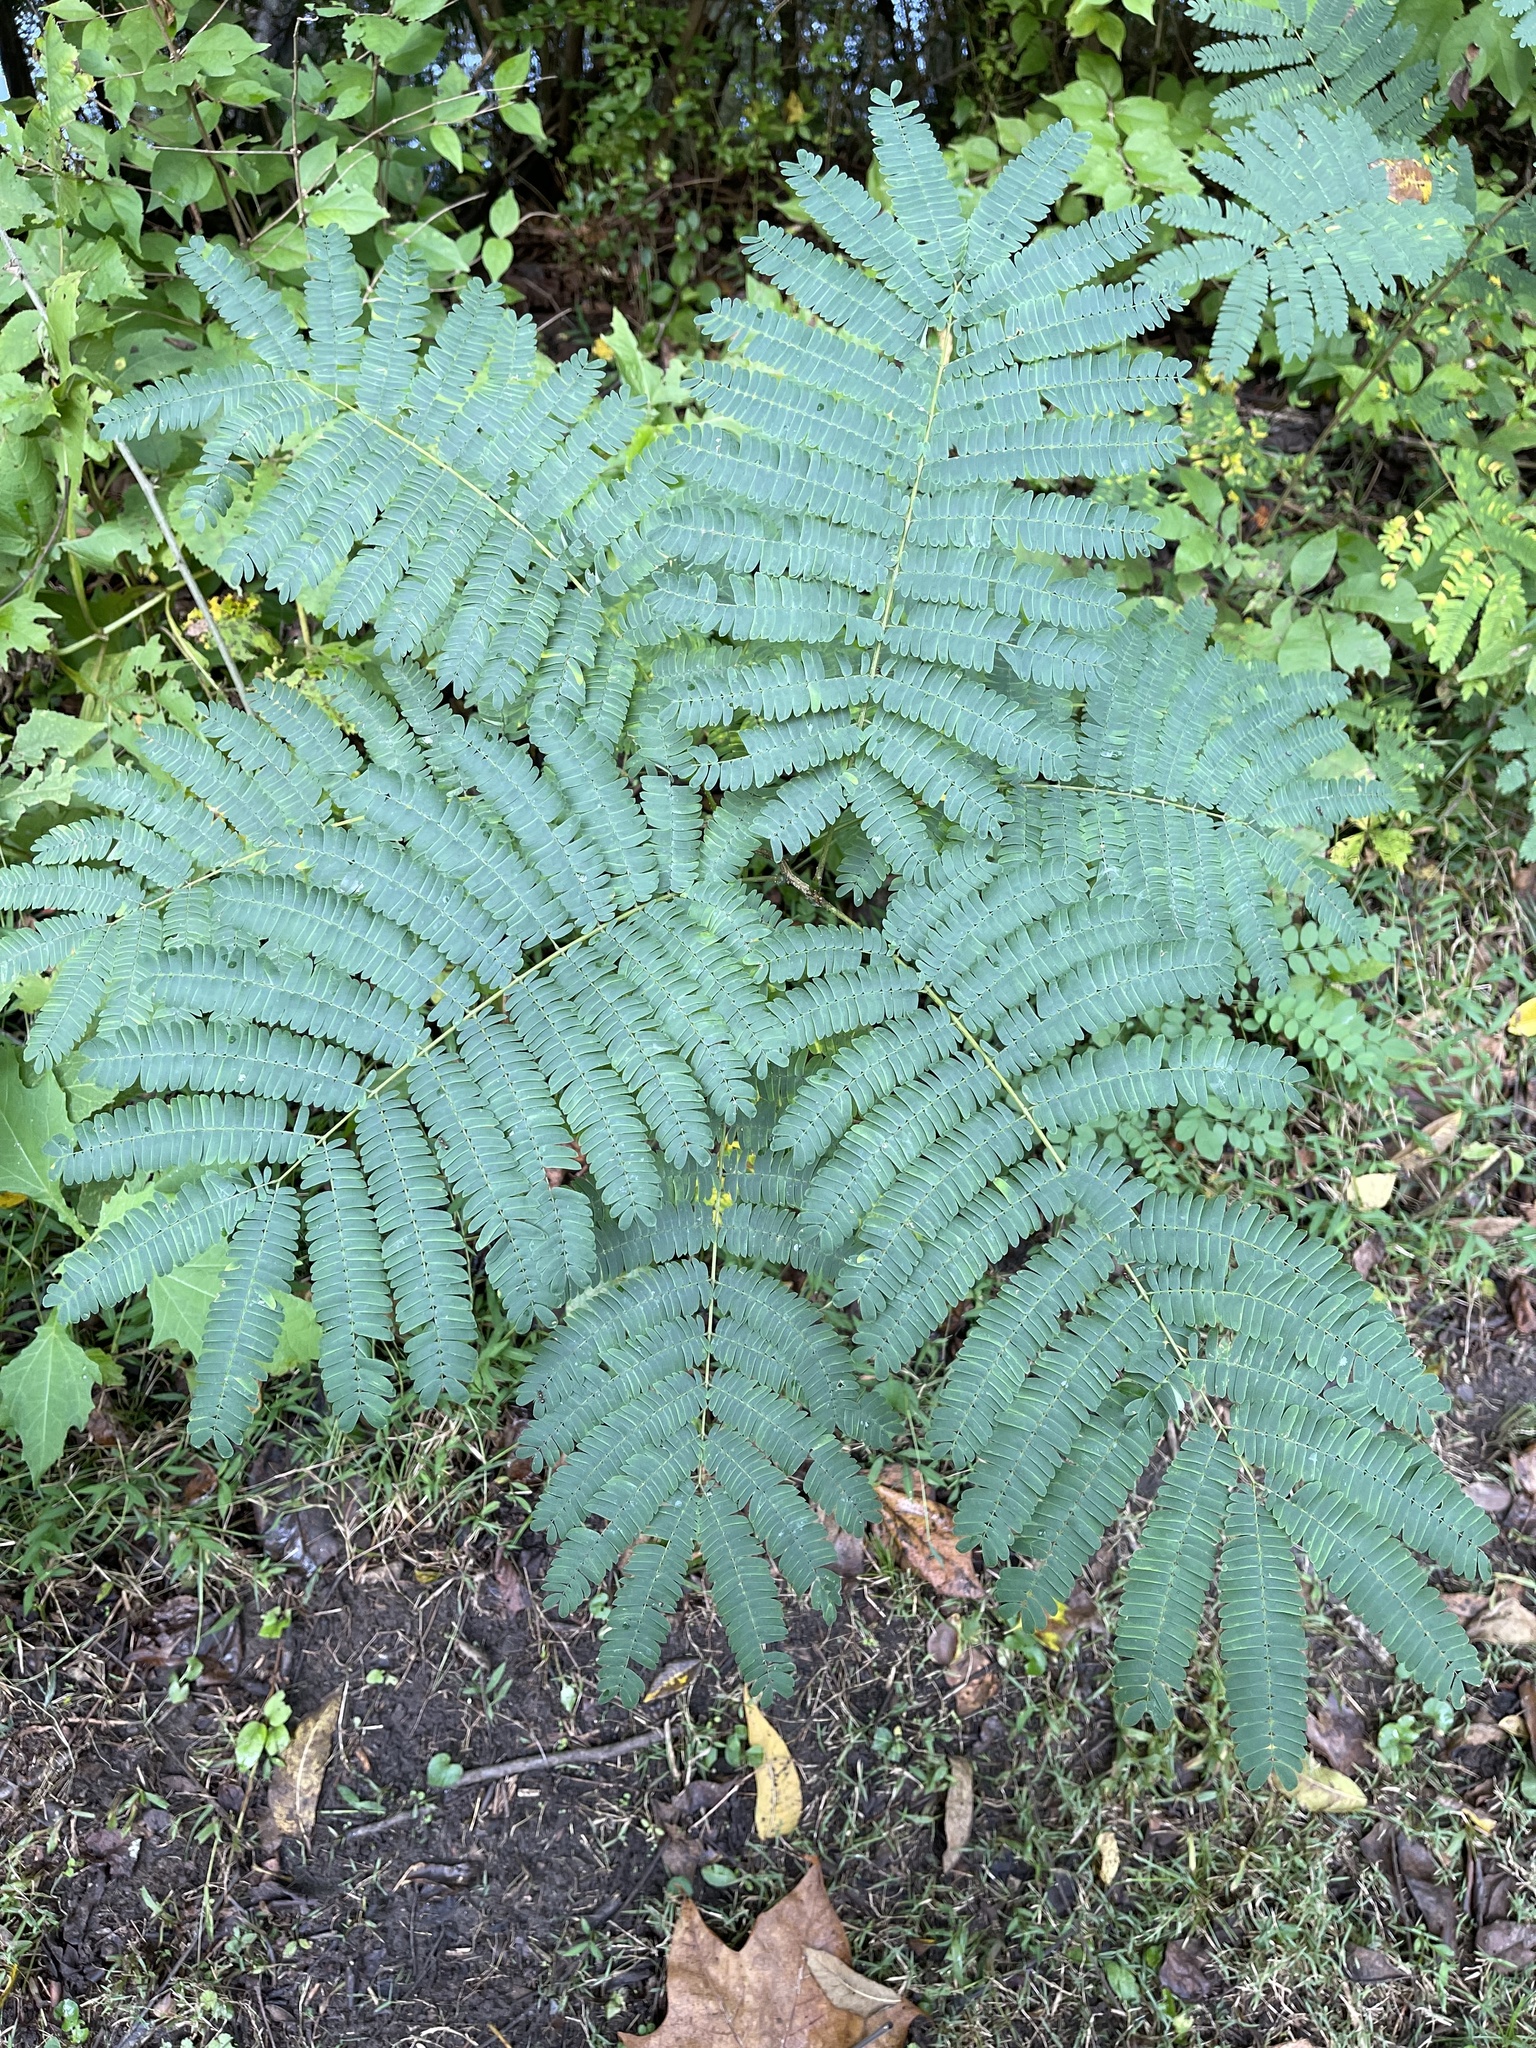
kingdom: Plantae
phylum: Tracheophyta
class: Magnoliopsida
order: Fabales
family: Fabaceae
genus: Albizia
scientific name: Albizia julibrissin
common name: Silktree
